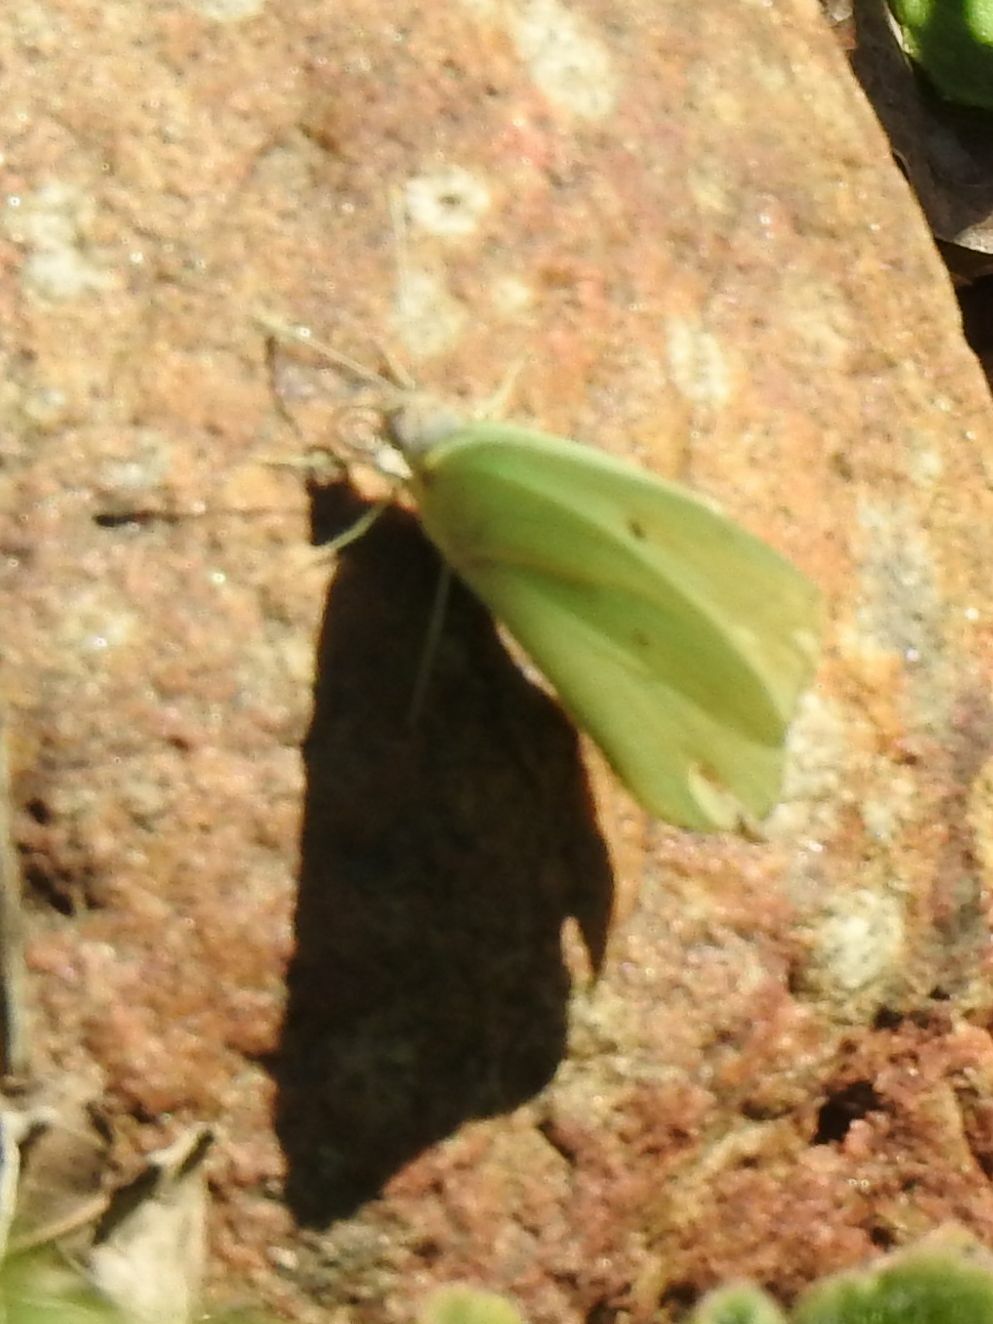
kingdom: Animalia
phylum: Arthropoda
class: Insecta
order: Lepidoptera
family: Pieridae
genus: Catopsilia
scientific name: Catopsilia florella
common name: African migrant
